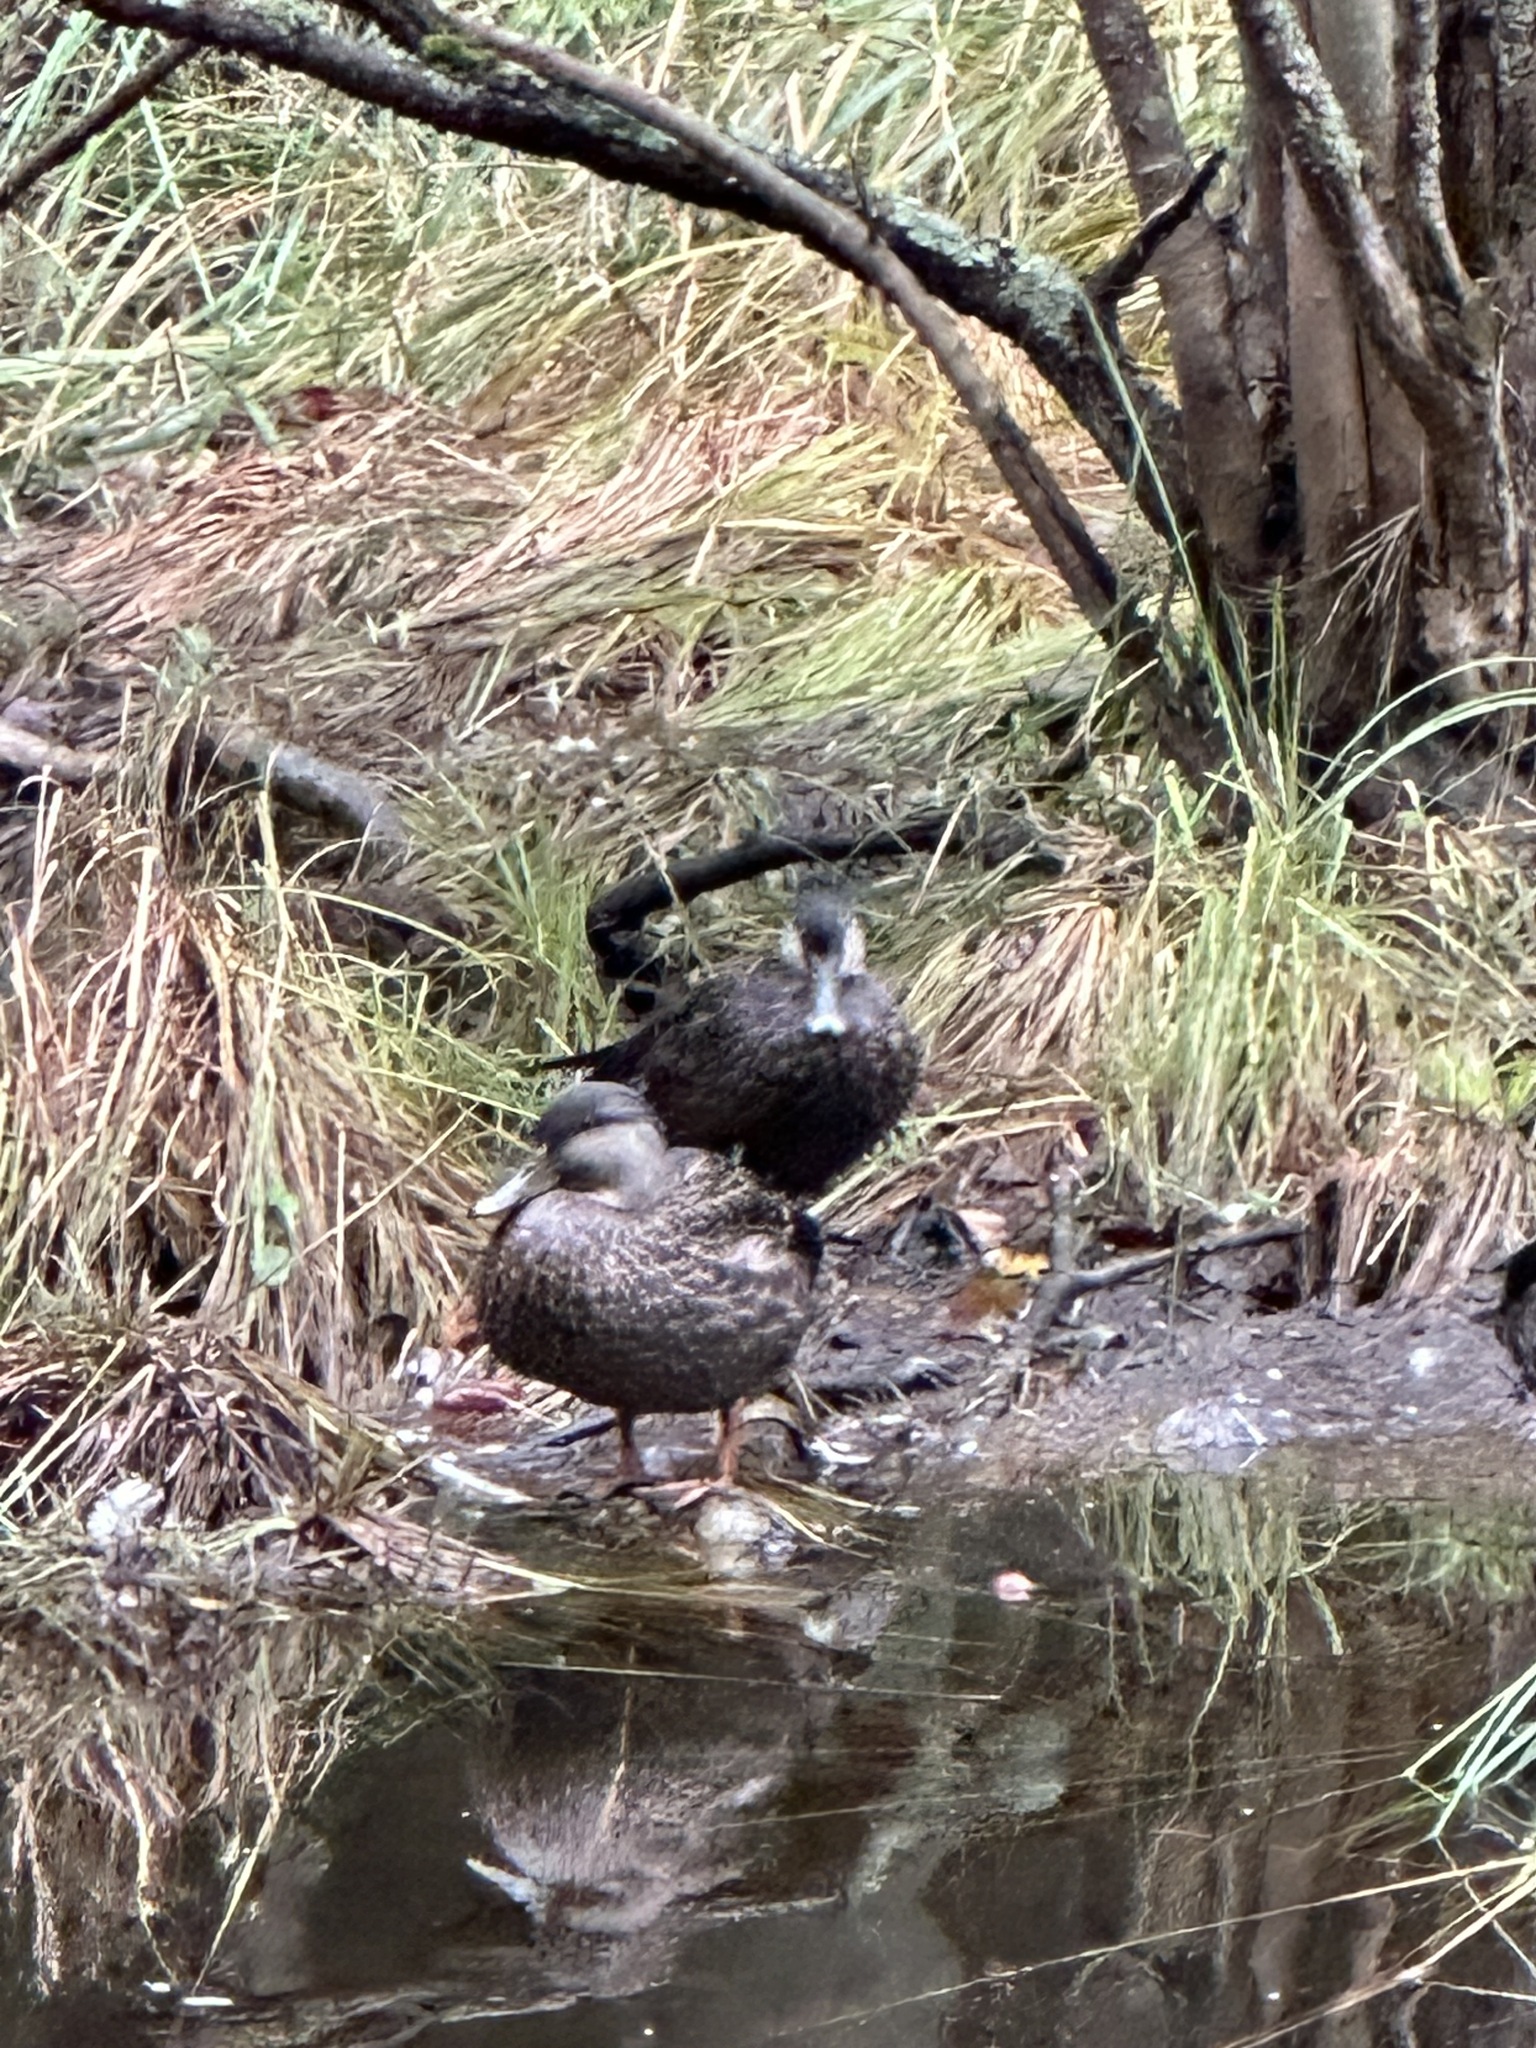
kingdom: Animalia
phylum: Chordata
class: Aves
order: Anseriformes
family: Anatidae
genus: Anas
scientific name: Anas rubripes
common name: American black duck
